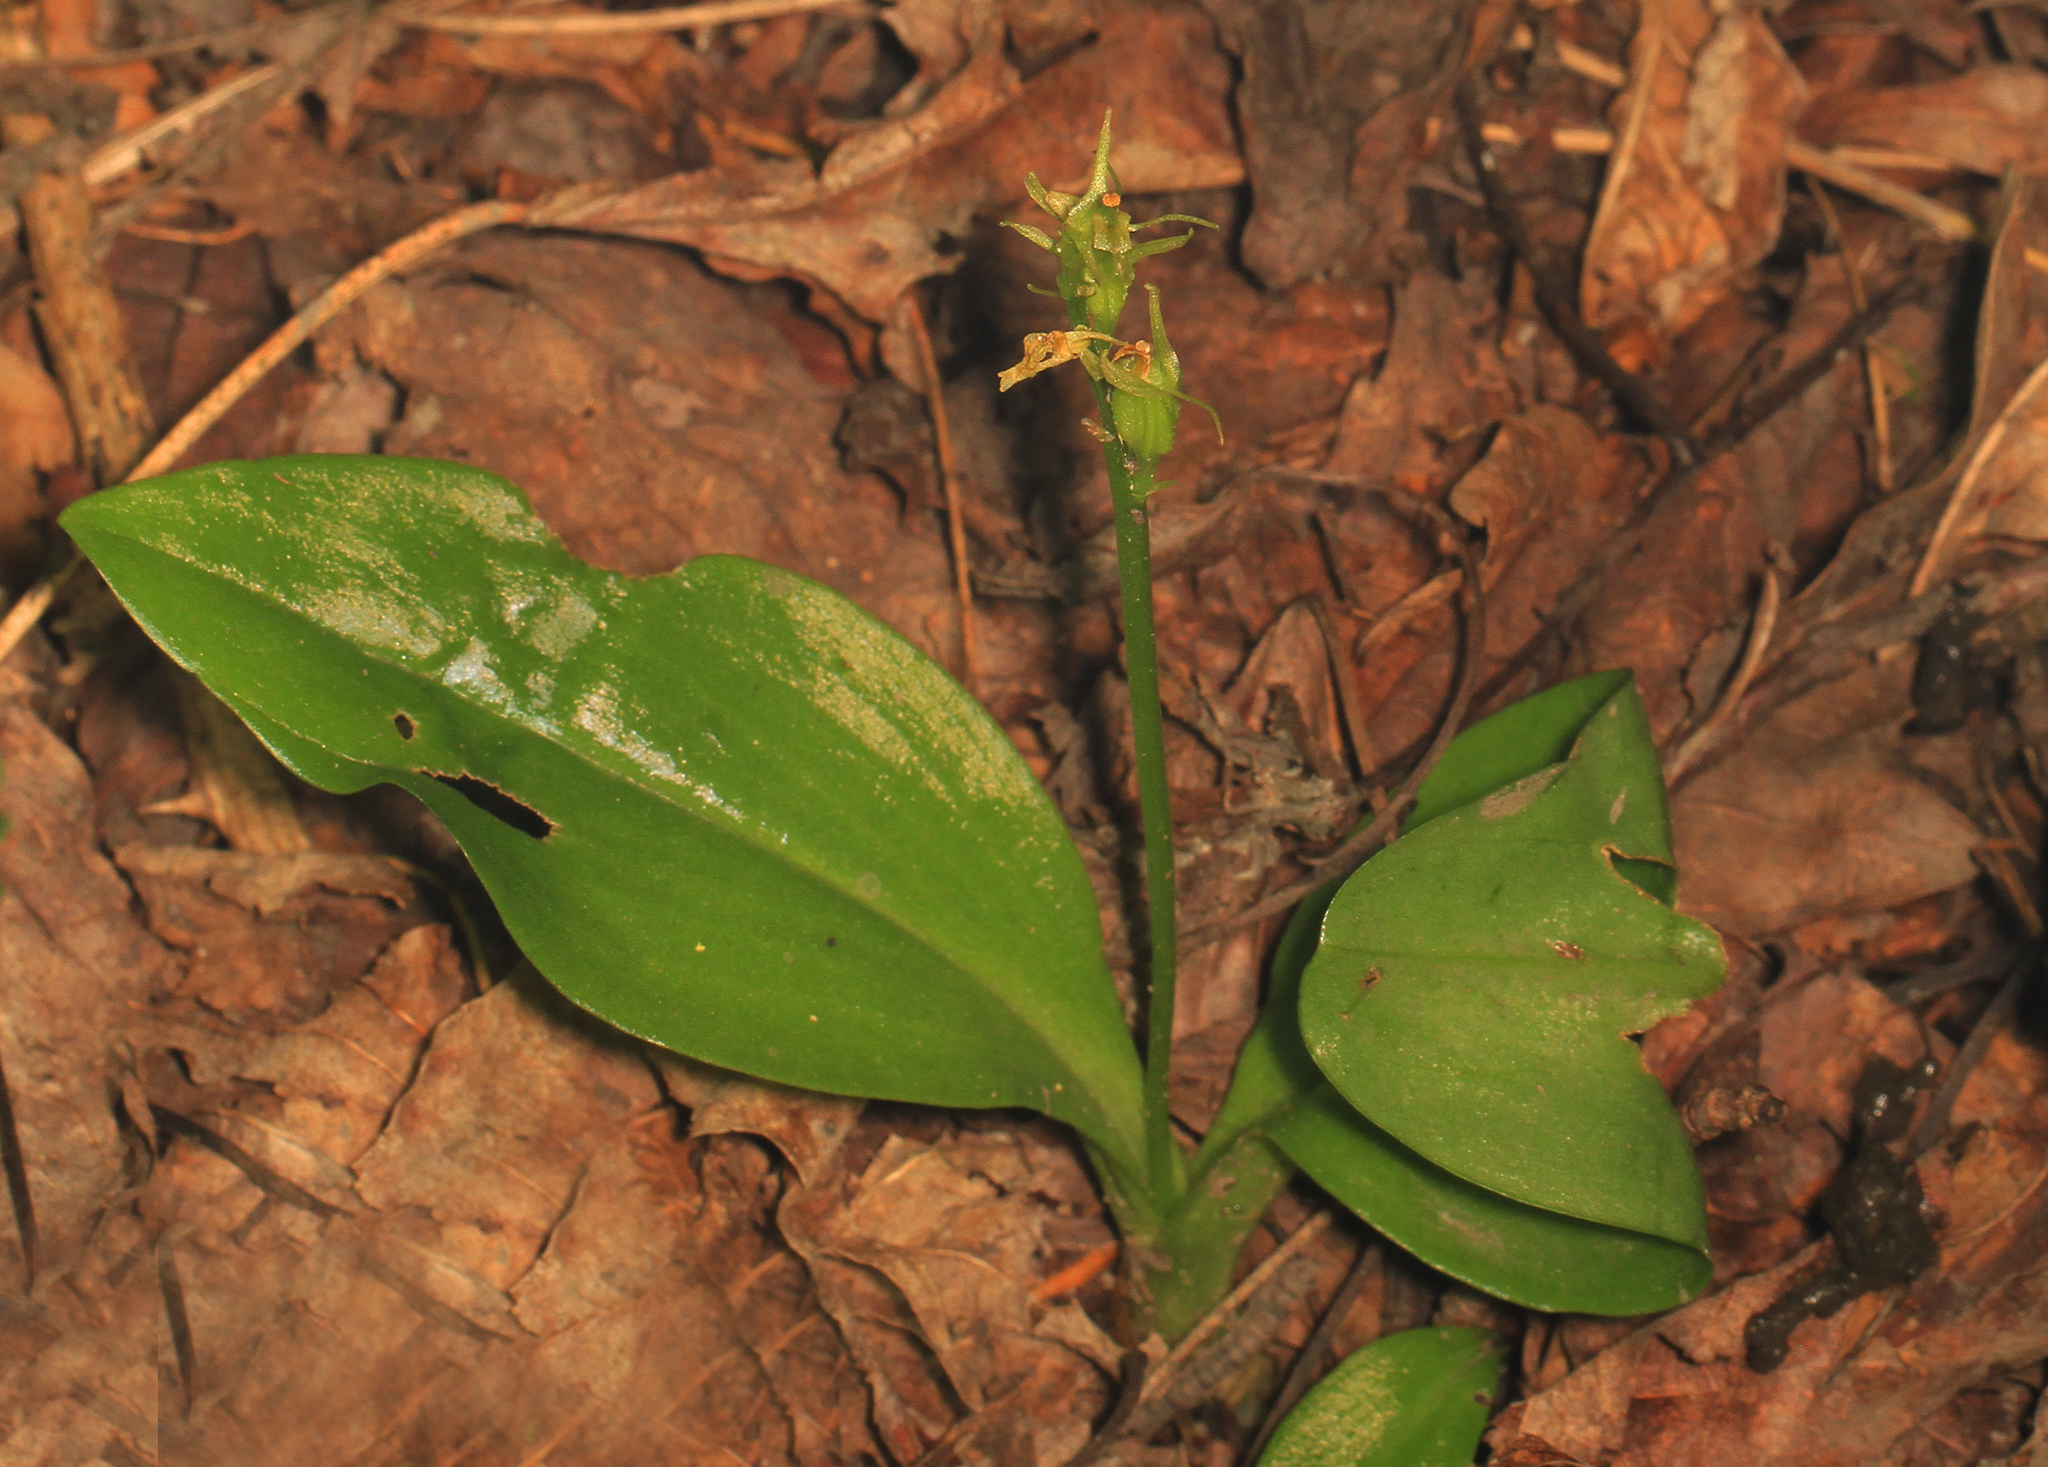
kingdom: Animalia
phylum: Arthropoda
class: Insecta
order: Coleoptera
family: Curculionidae
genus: Liparis
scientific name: Liparis loeselii
